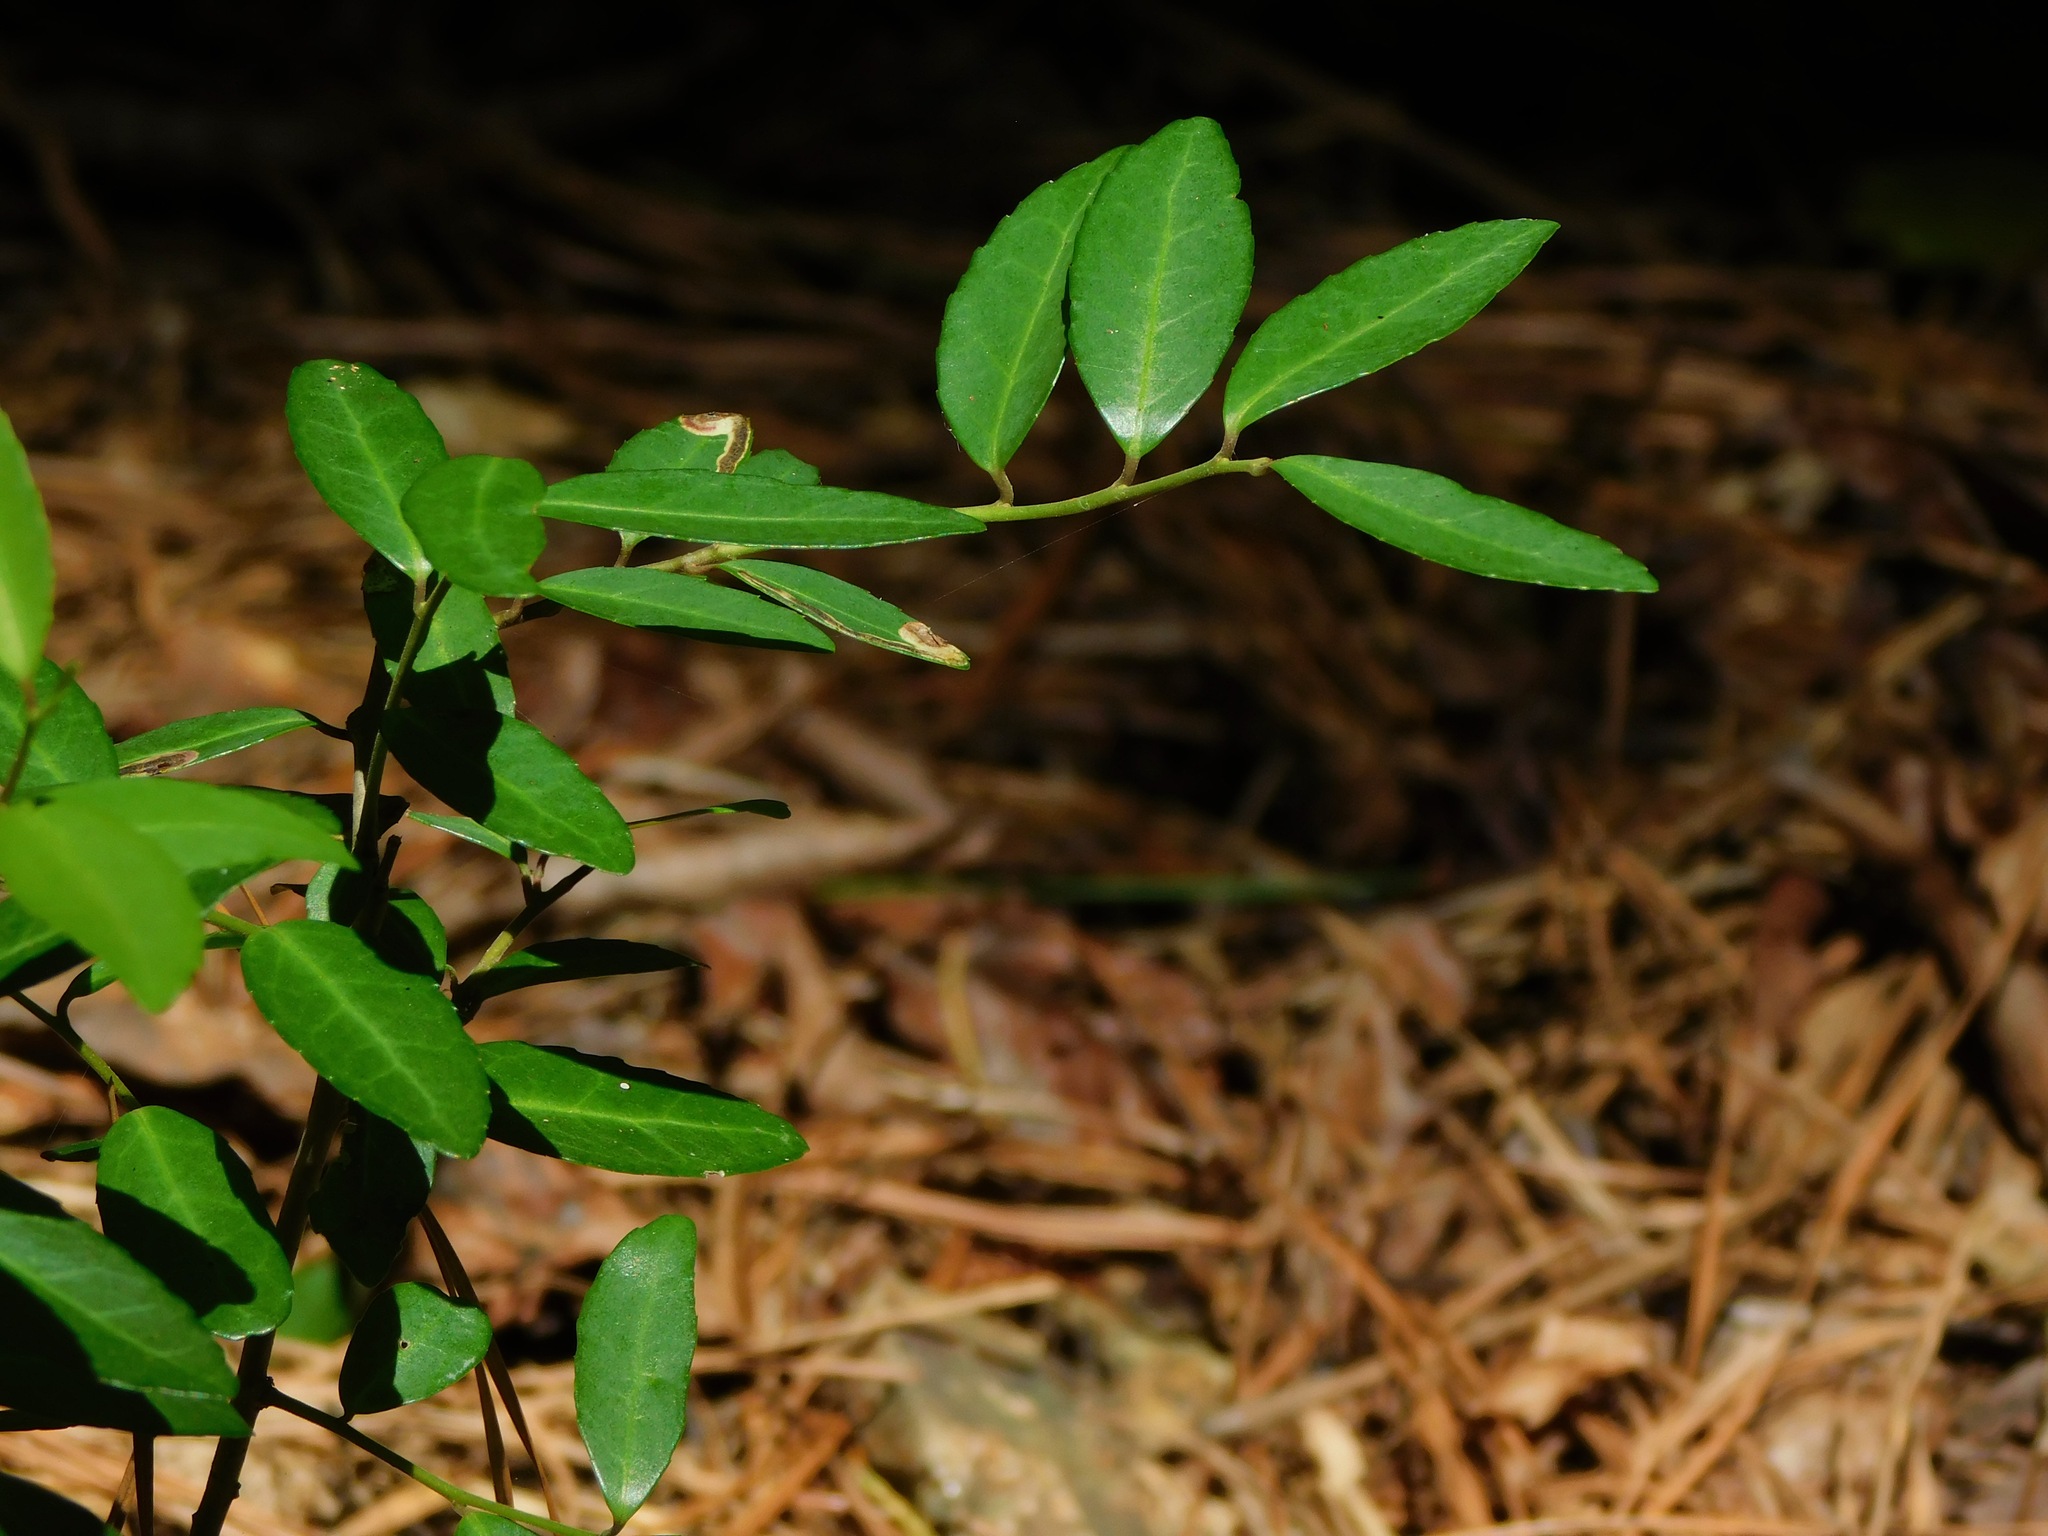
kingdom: Plantae
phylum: Tracheophyta
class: Magnoliopsida
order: Aquifoliales
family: Aquifoliaceae
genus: Ilex
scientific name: Ilex vomitoria
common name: Yaupon holly
